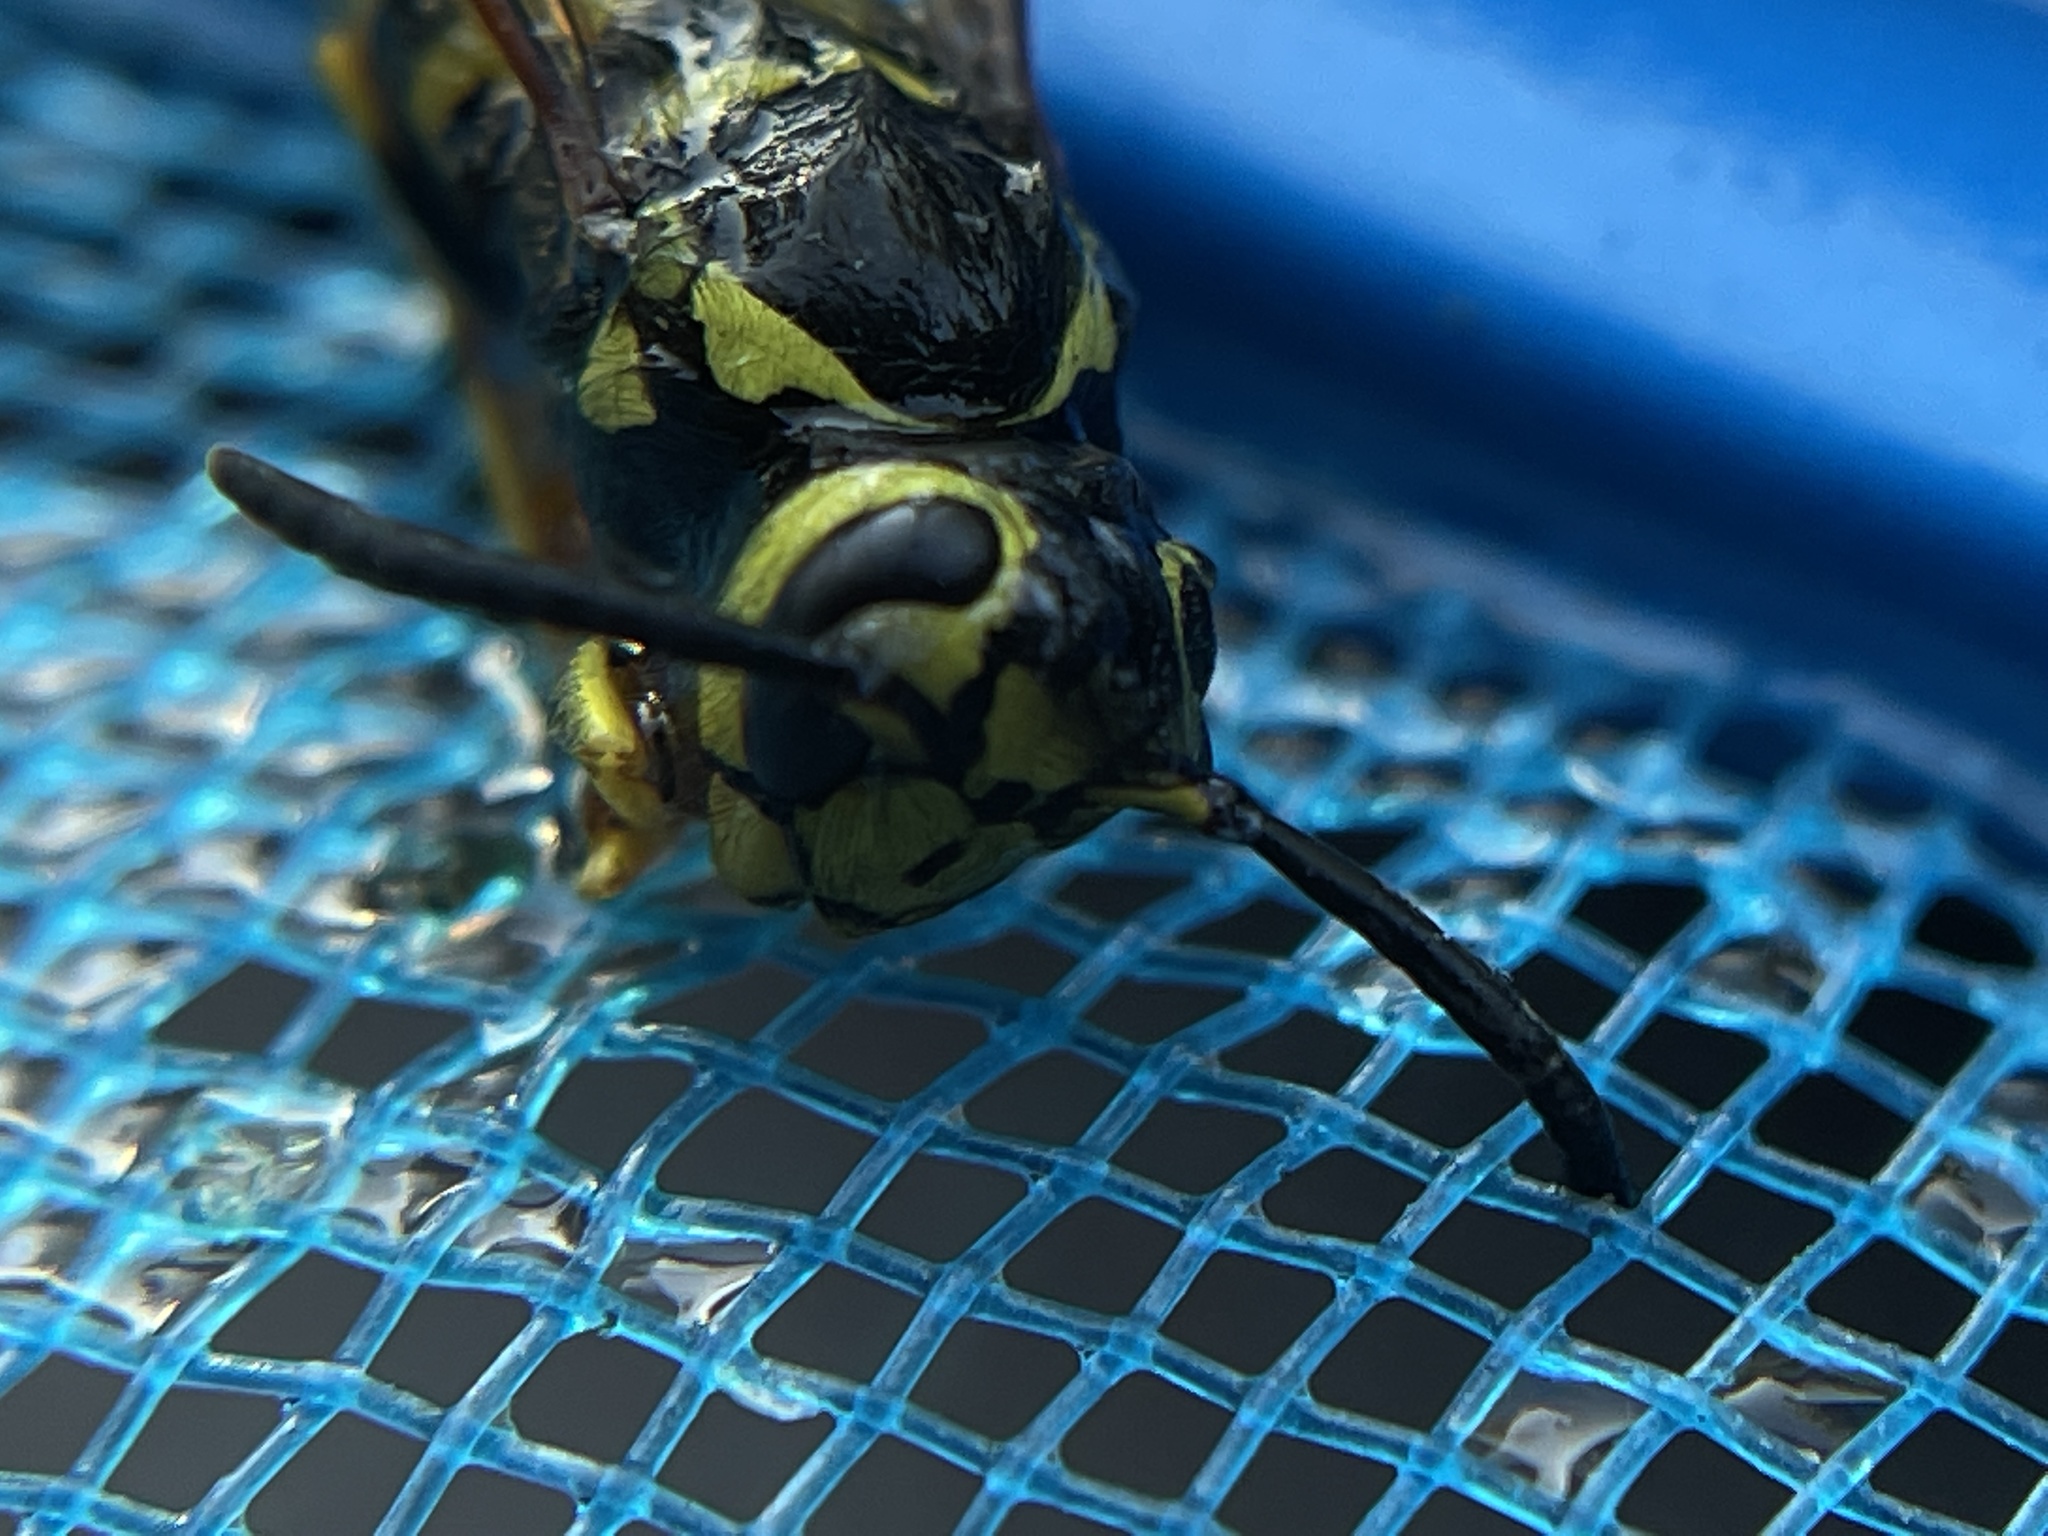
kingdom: Animalia
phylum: Arthropoda
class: Insecta
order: Hymenoptera
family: Vespidae
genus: Vespula
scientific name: Vespula pensylvanica
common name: Western yellowjacket
